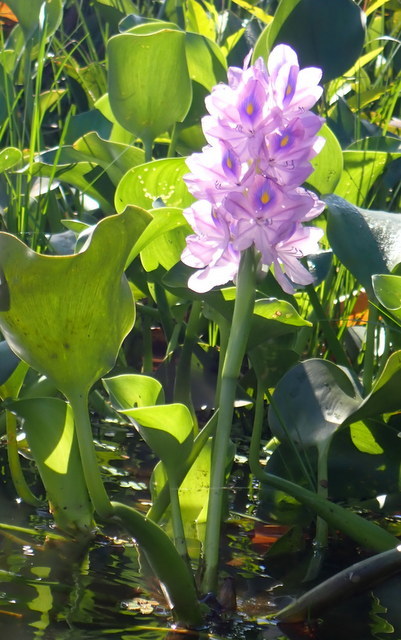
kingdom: Plantae
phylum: Tracheophyta
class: Liliopsida
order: Commelinales
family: Pontederiaceae
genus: Pontederia
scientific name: Pontederia crassipes
